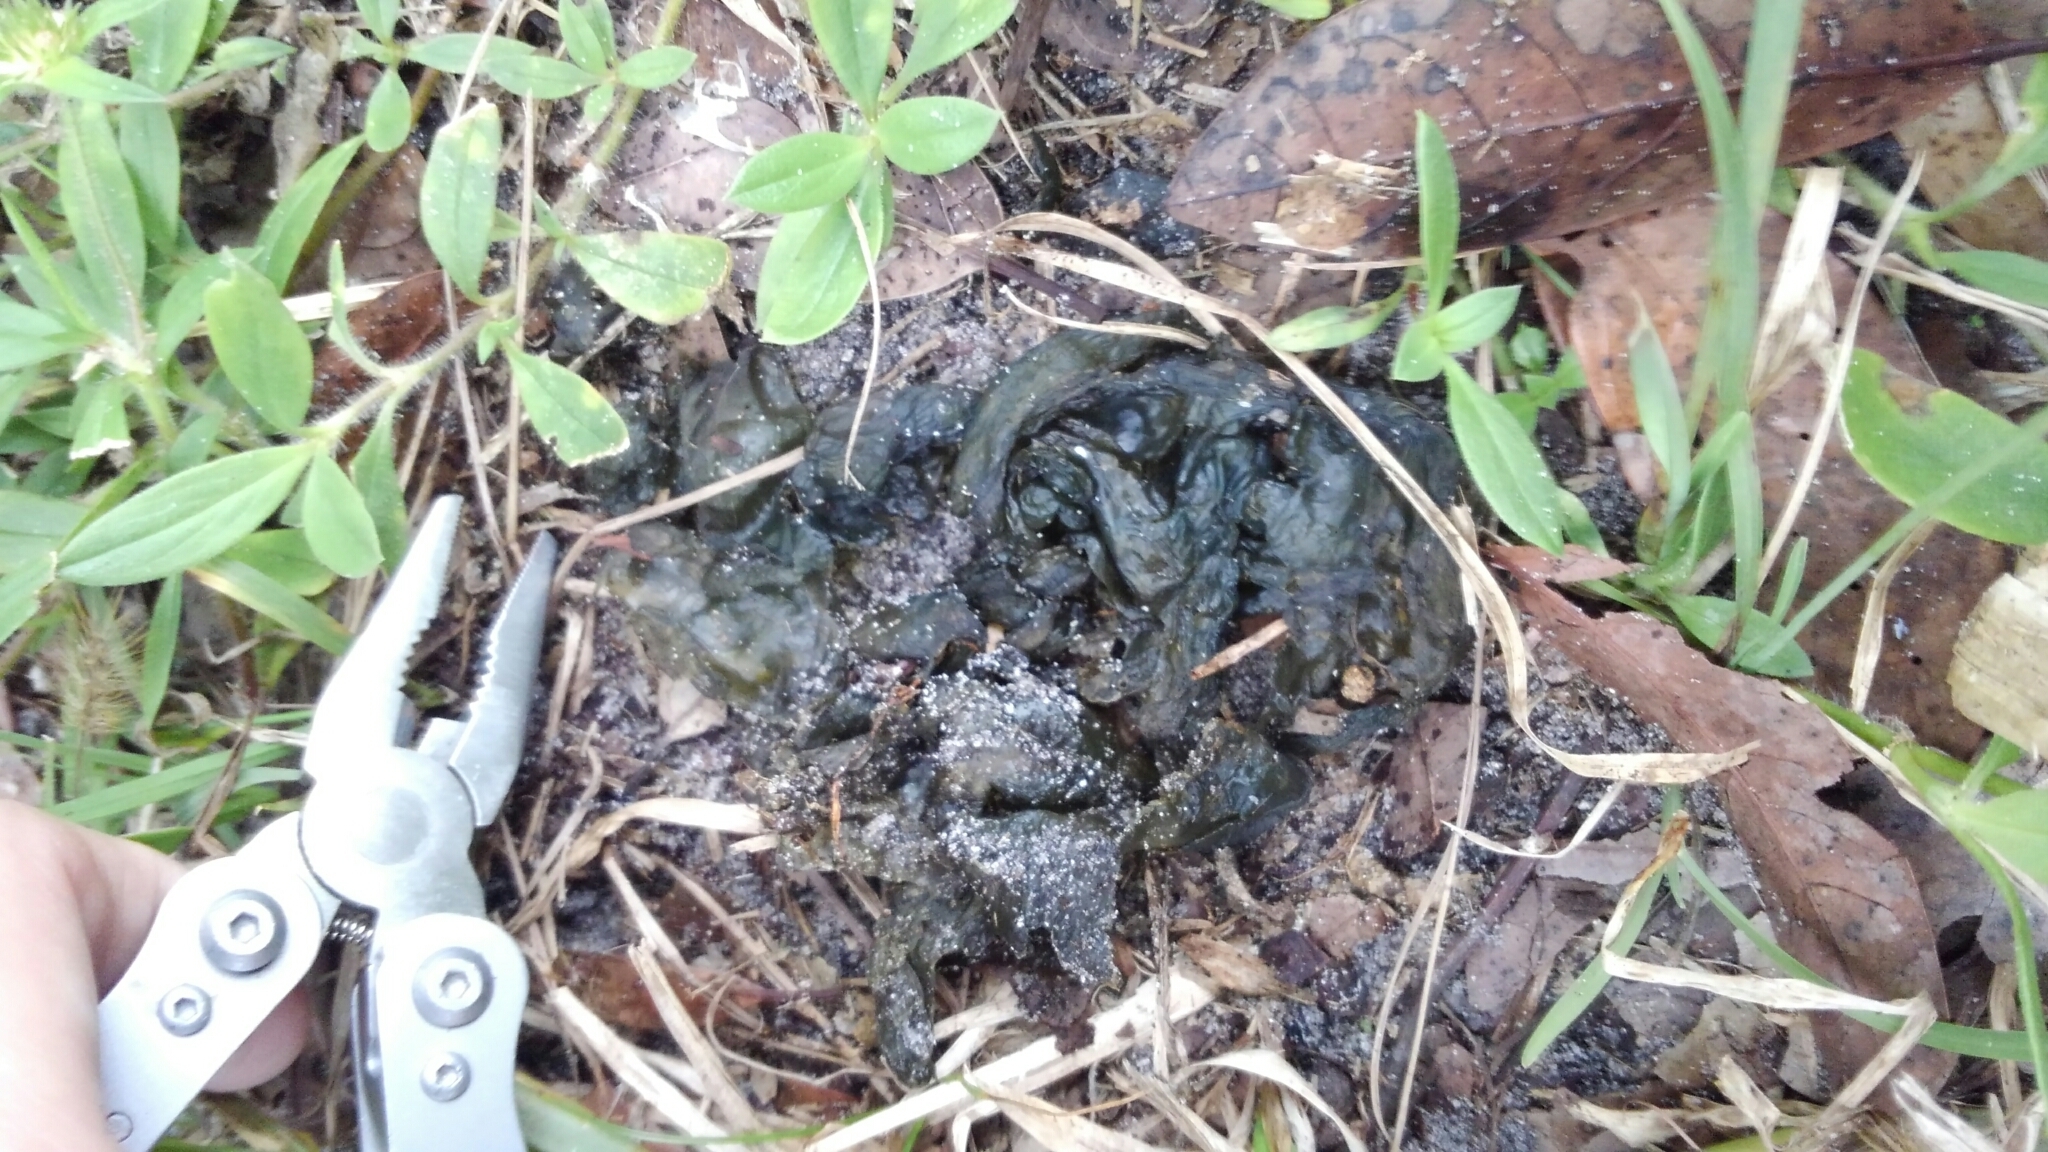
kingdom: Bacteria
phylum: Cyanobacteria
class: Cyanobacteriia
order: Cyanobacteriales
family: Nostocaceae
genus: Nostoc
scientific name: Nostoc commune
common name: Star jelly
